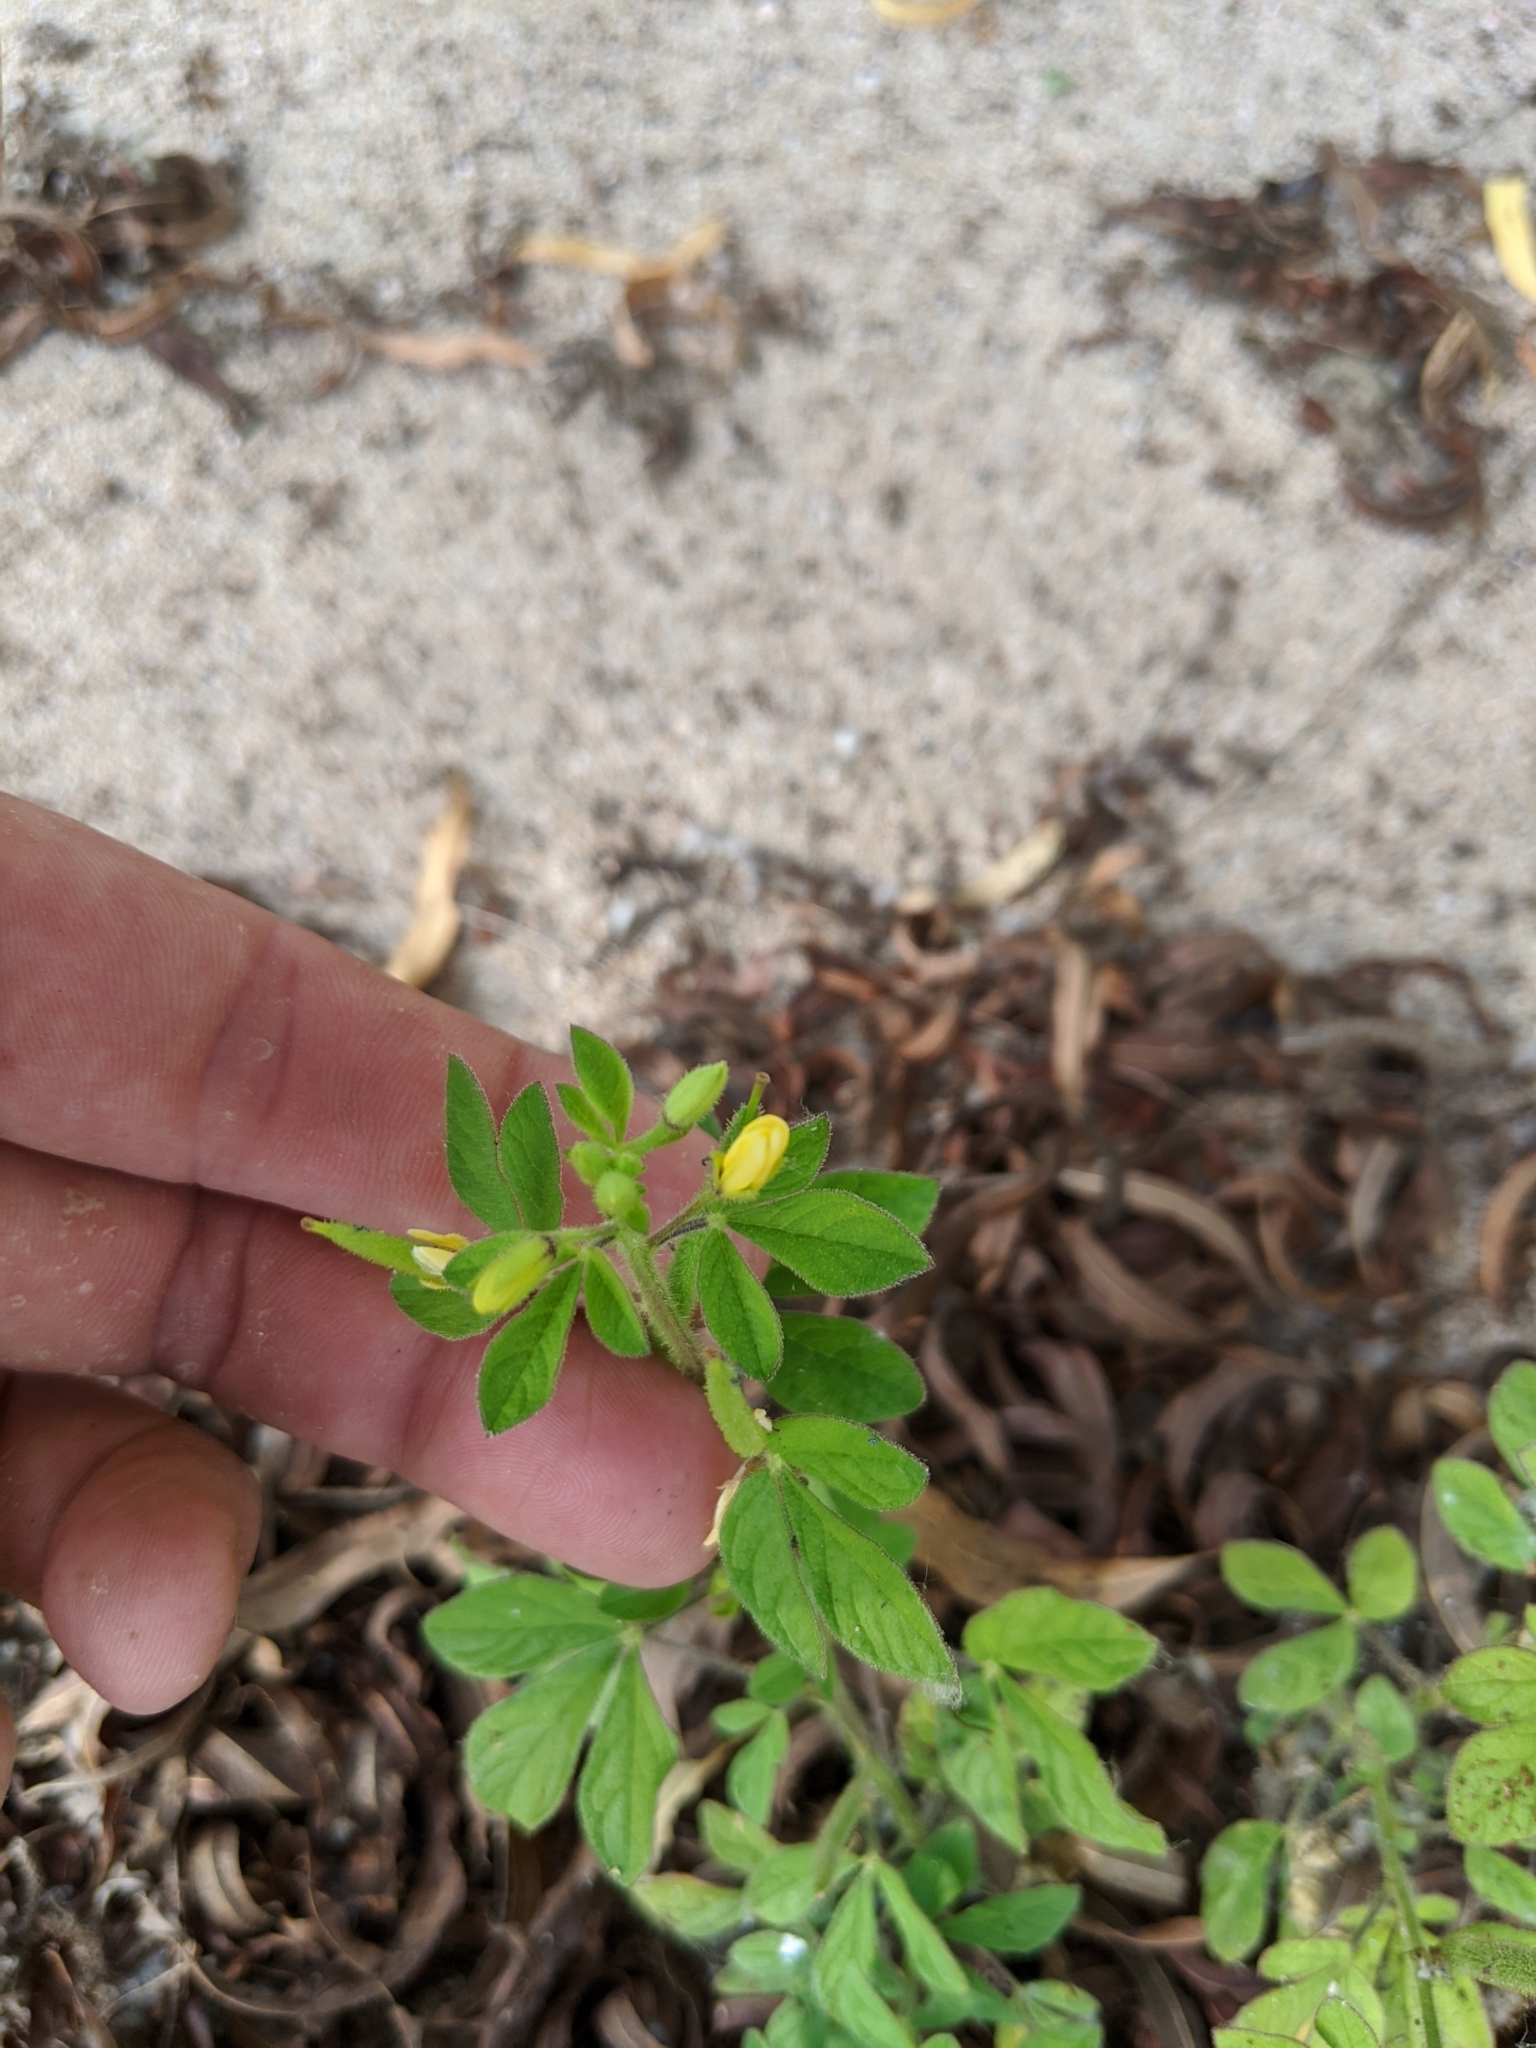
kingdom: Plantae
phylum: Tracheophyta
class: Magnoliopsida
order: Brassicales
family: Cleomaceae
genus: Arivela
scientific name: Arivela viscosa
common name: Asian spiderflower
